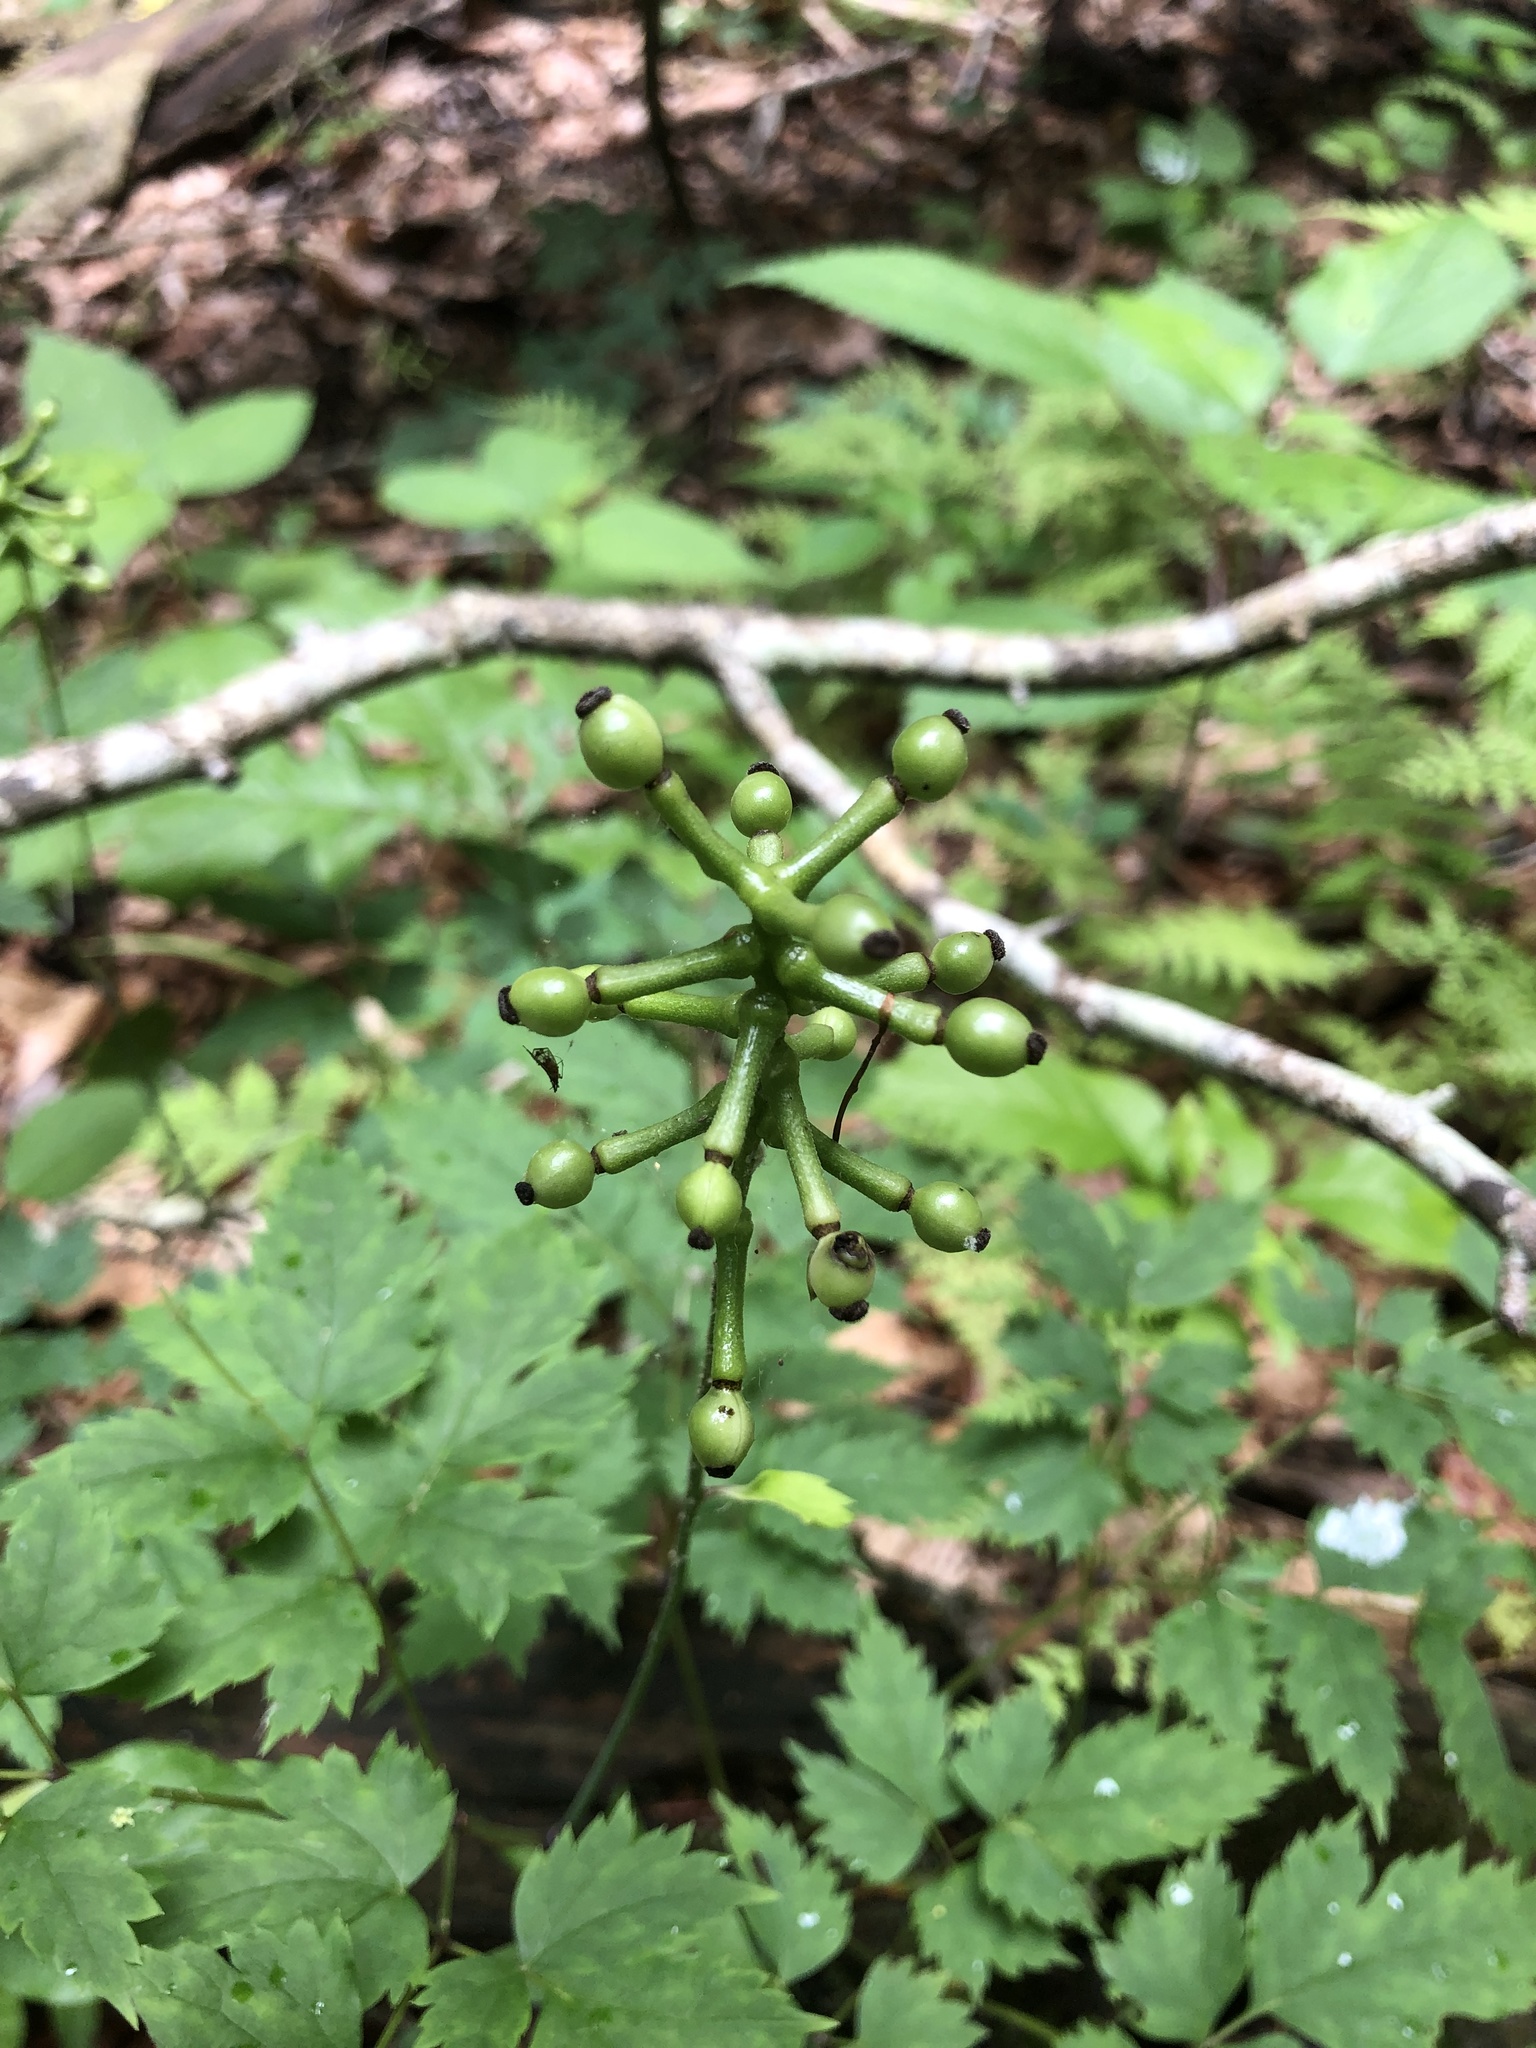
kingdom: Plantae
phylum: Tracheophyta
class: Magnoliopsida
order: Ranunculales
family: Ranunculaceae
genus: Actaea
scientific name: Actaea pachypoda
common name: Doll's-eyes
